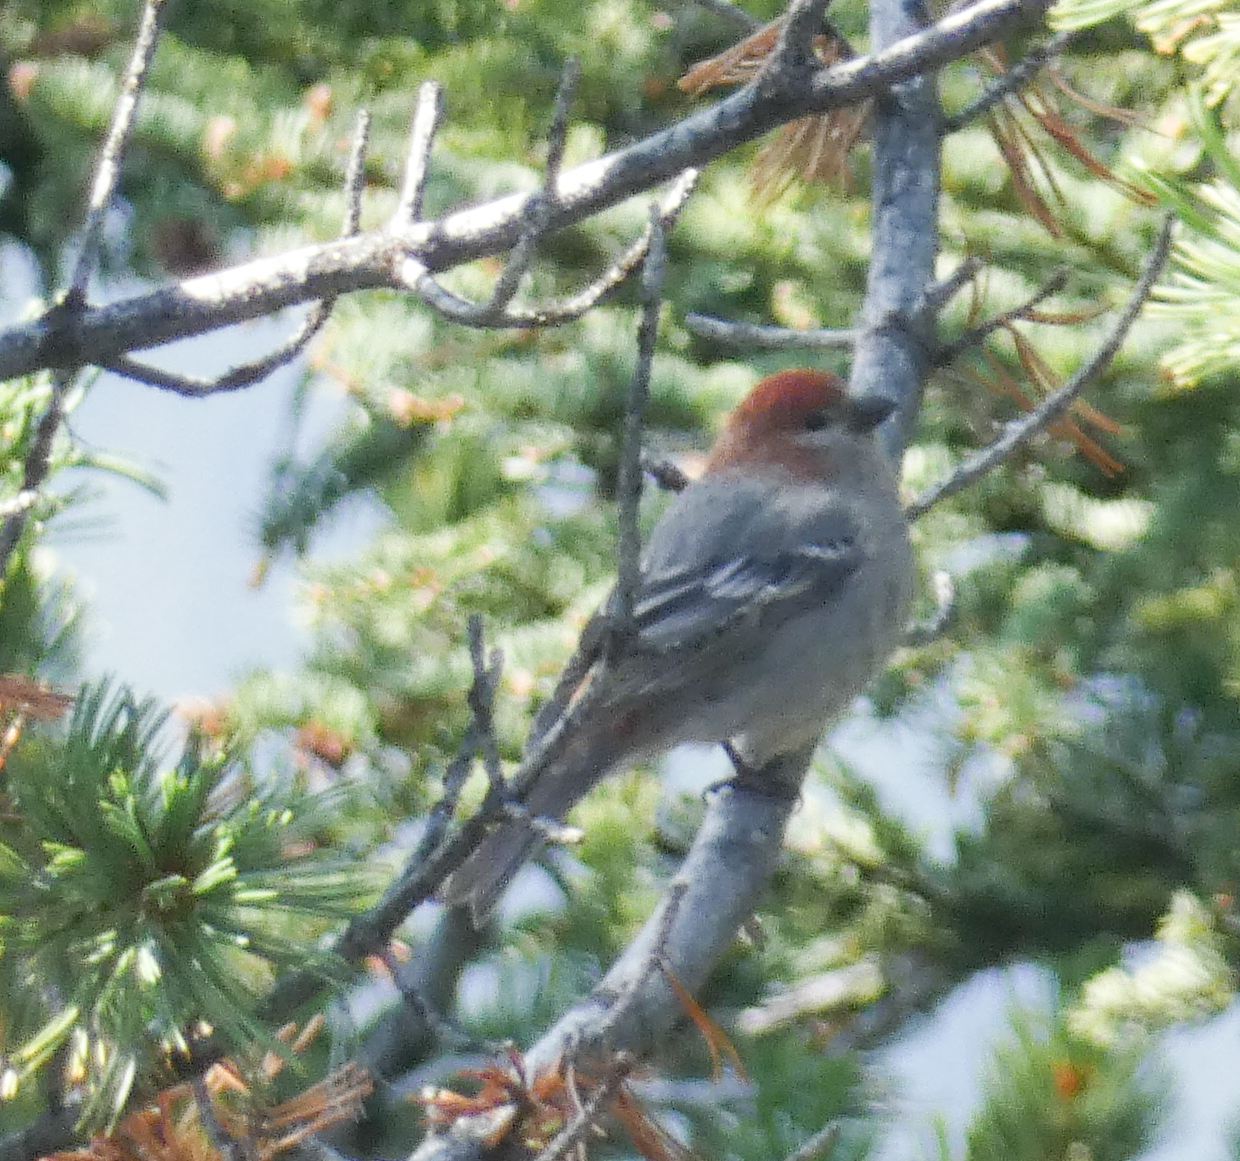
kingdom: Animalia
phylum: Chordata
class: Aves
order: Passeriformes
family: Fringillidae
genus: Pinicola
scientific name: Pinicola enucleator
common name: Pine grosbeak
